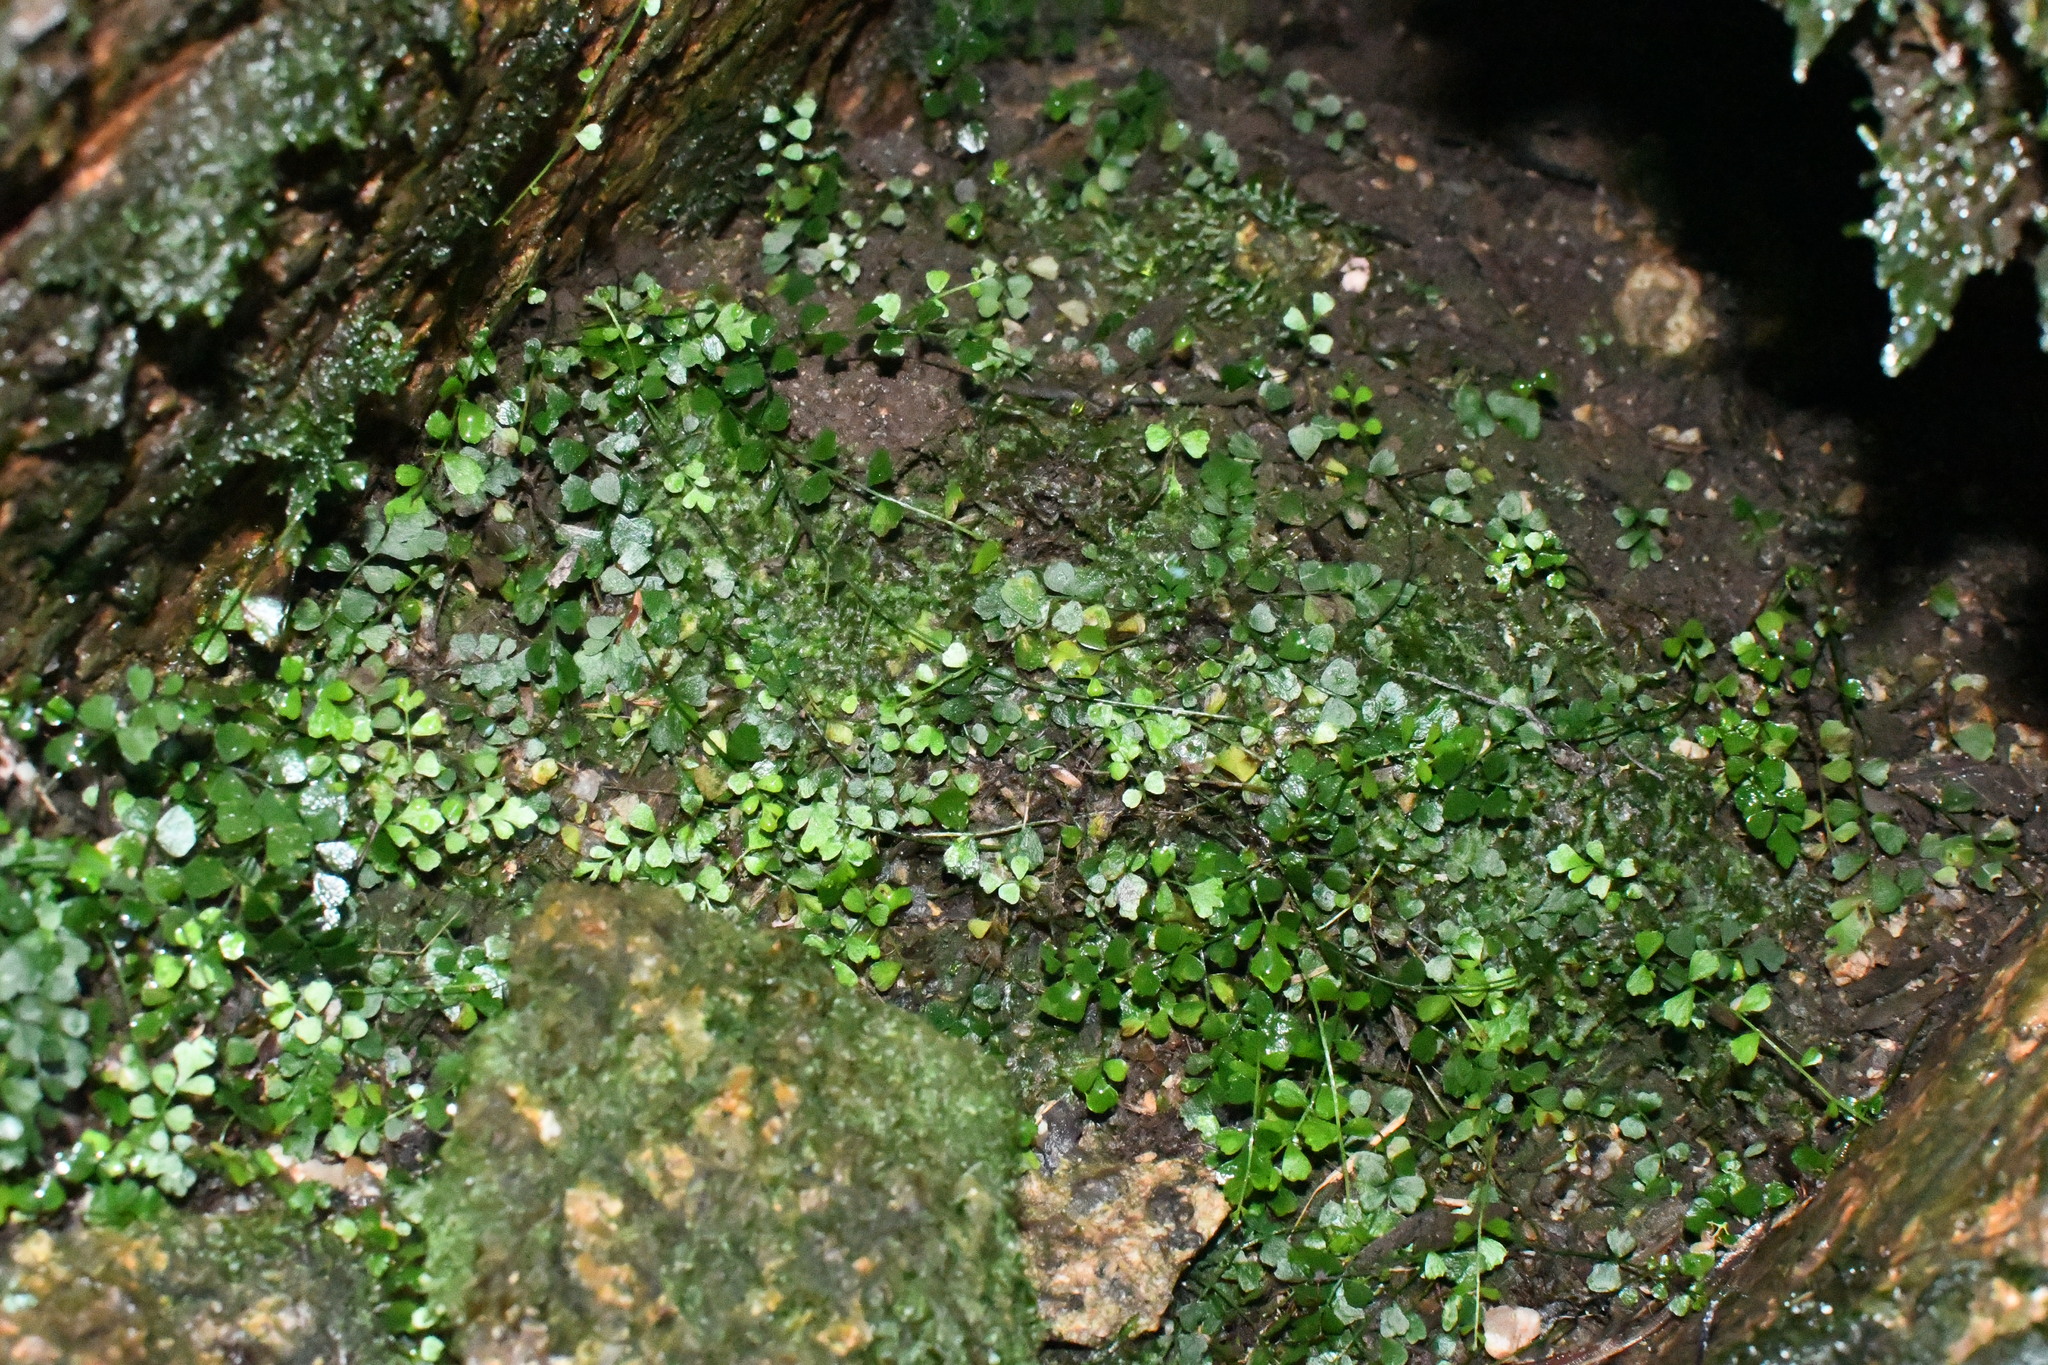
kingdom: Plantae
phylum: Tracheophyta
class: Polypodiopsida
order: Polypodiales
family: Aspleniaceae
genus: Asplenium
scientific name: Asplenium flabellifolium
